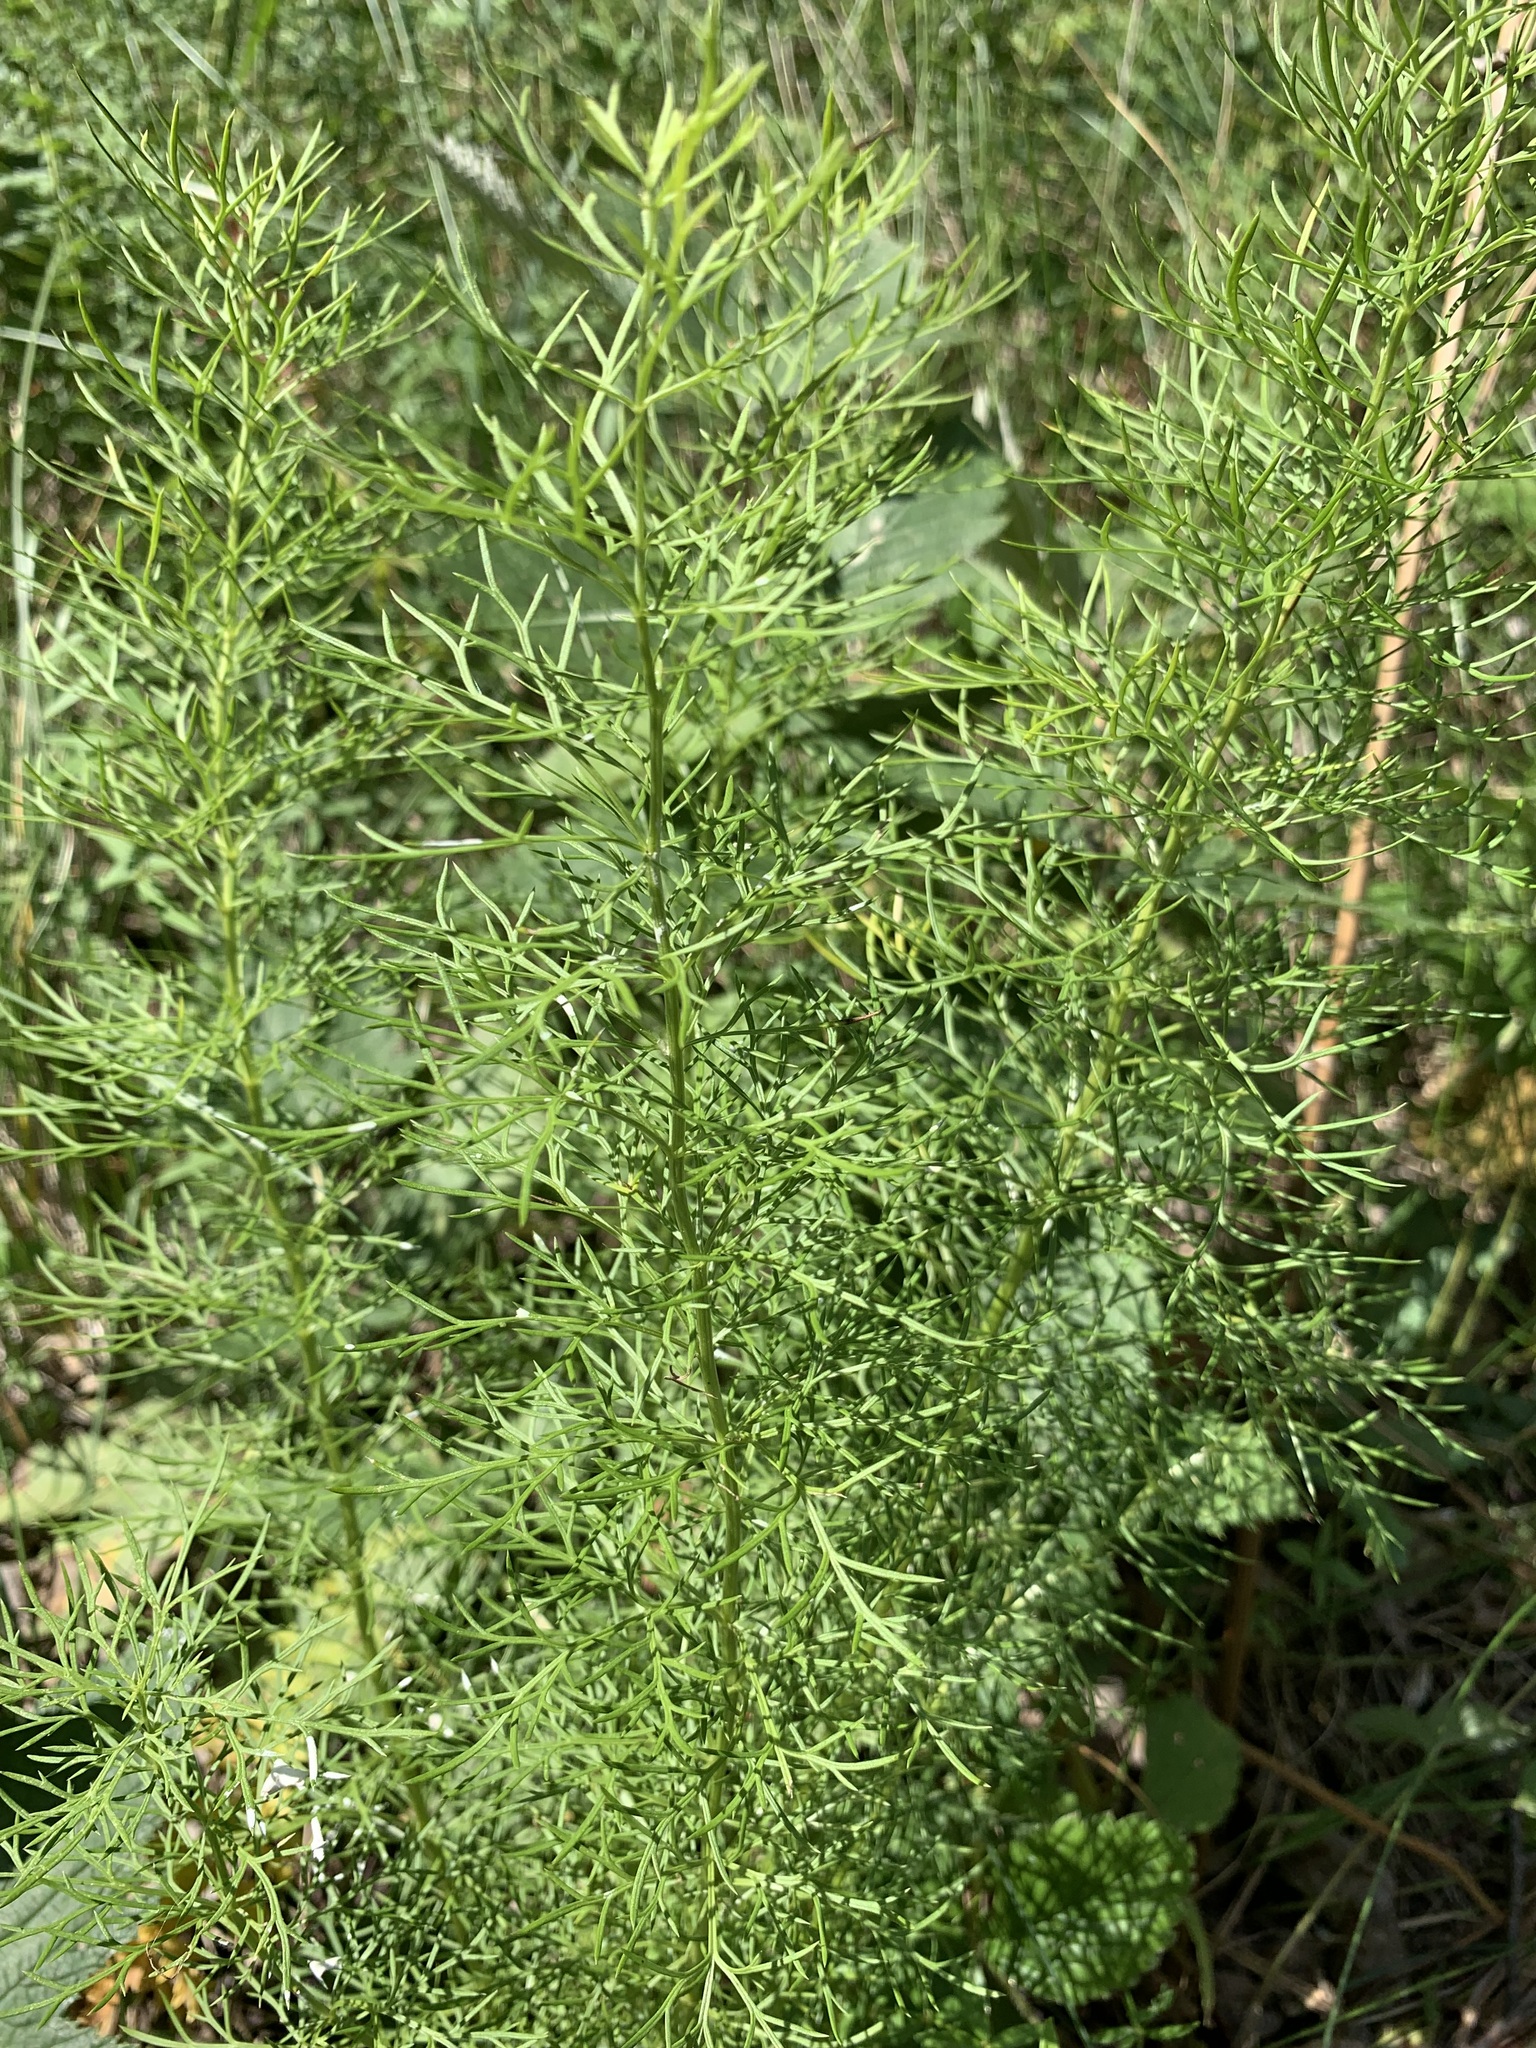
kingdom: Plantae
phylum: Tracheophyta
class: Magnoliopsida
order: Ranunculales
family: Ranunculaceae
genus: Adonis
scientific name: Adonis vernalis
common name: Yellow pheasants-eye
